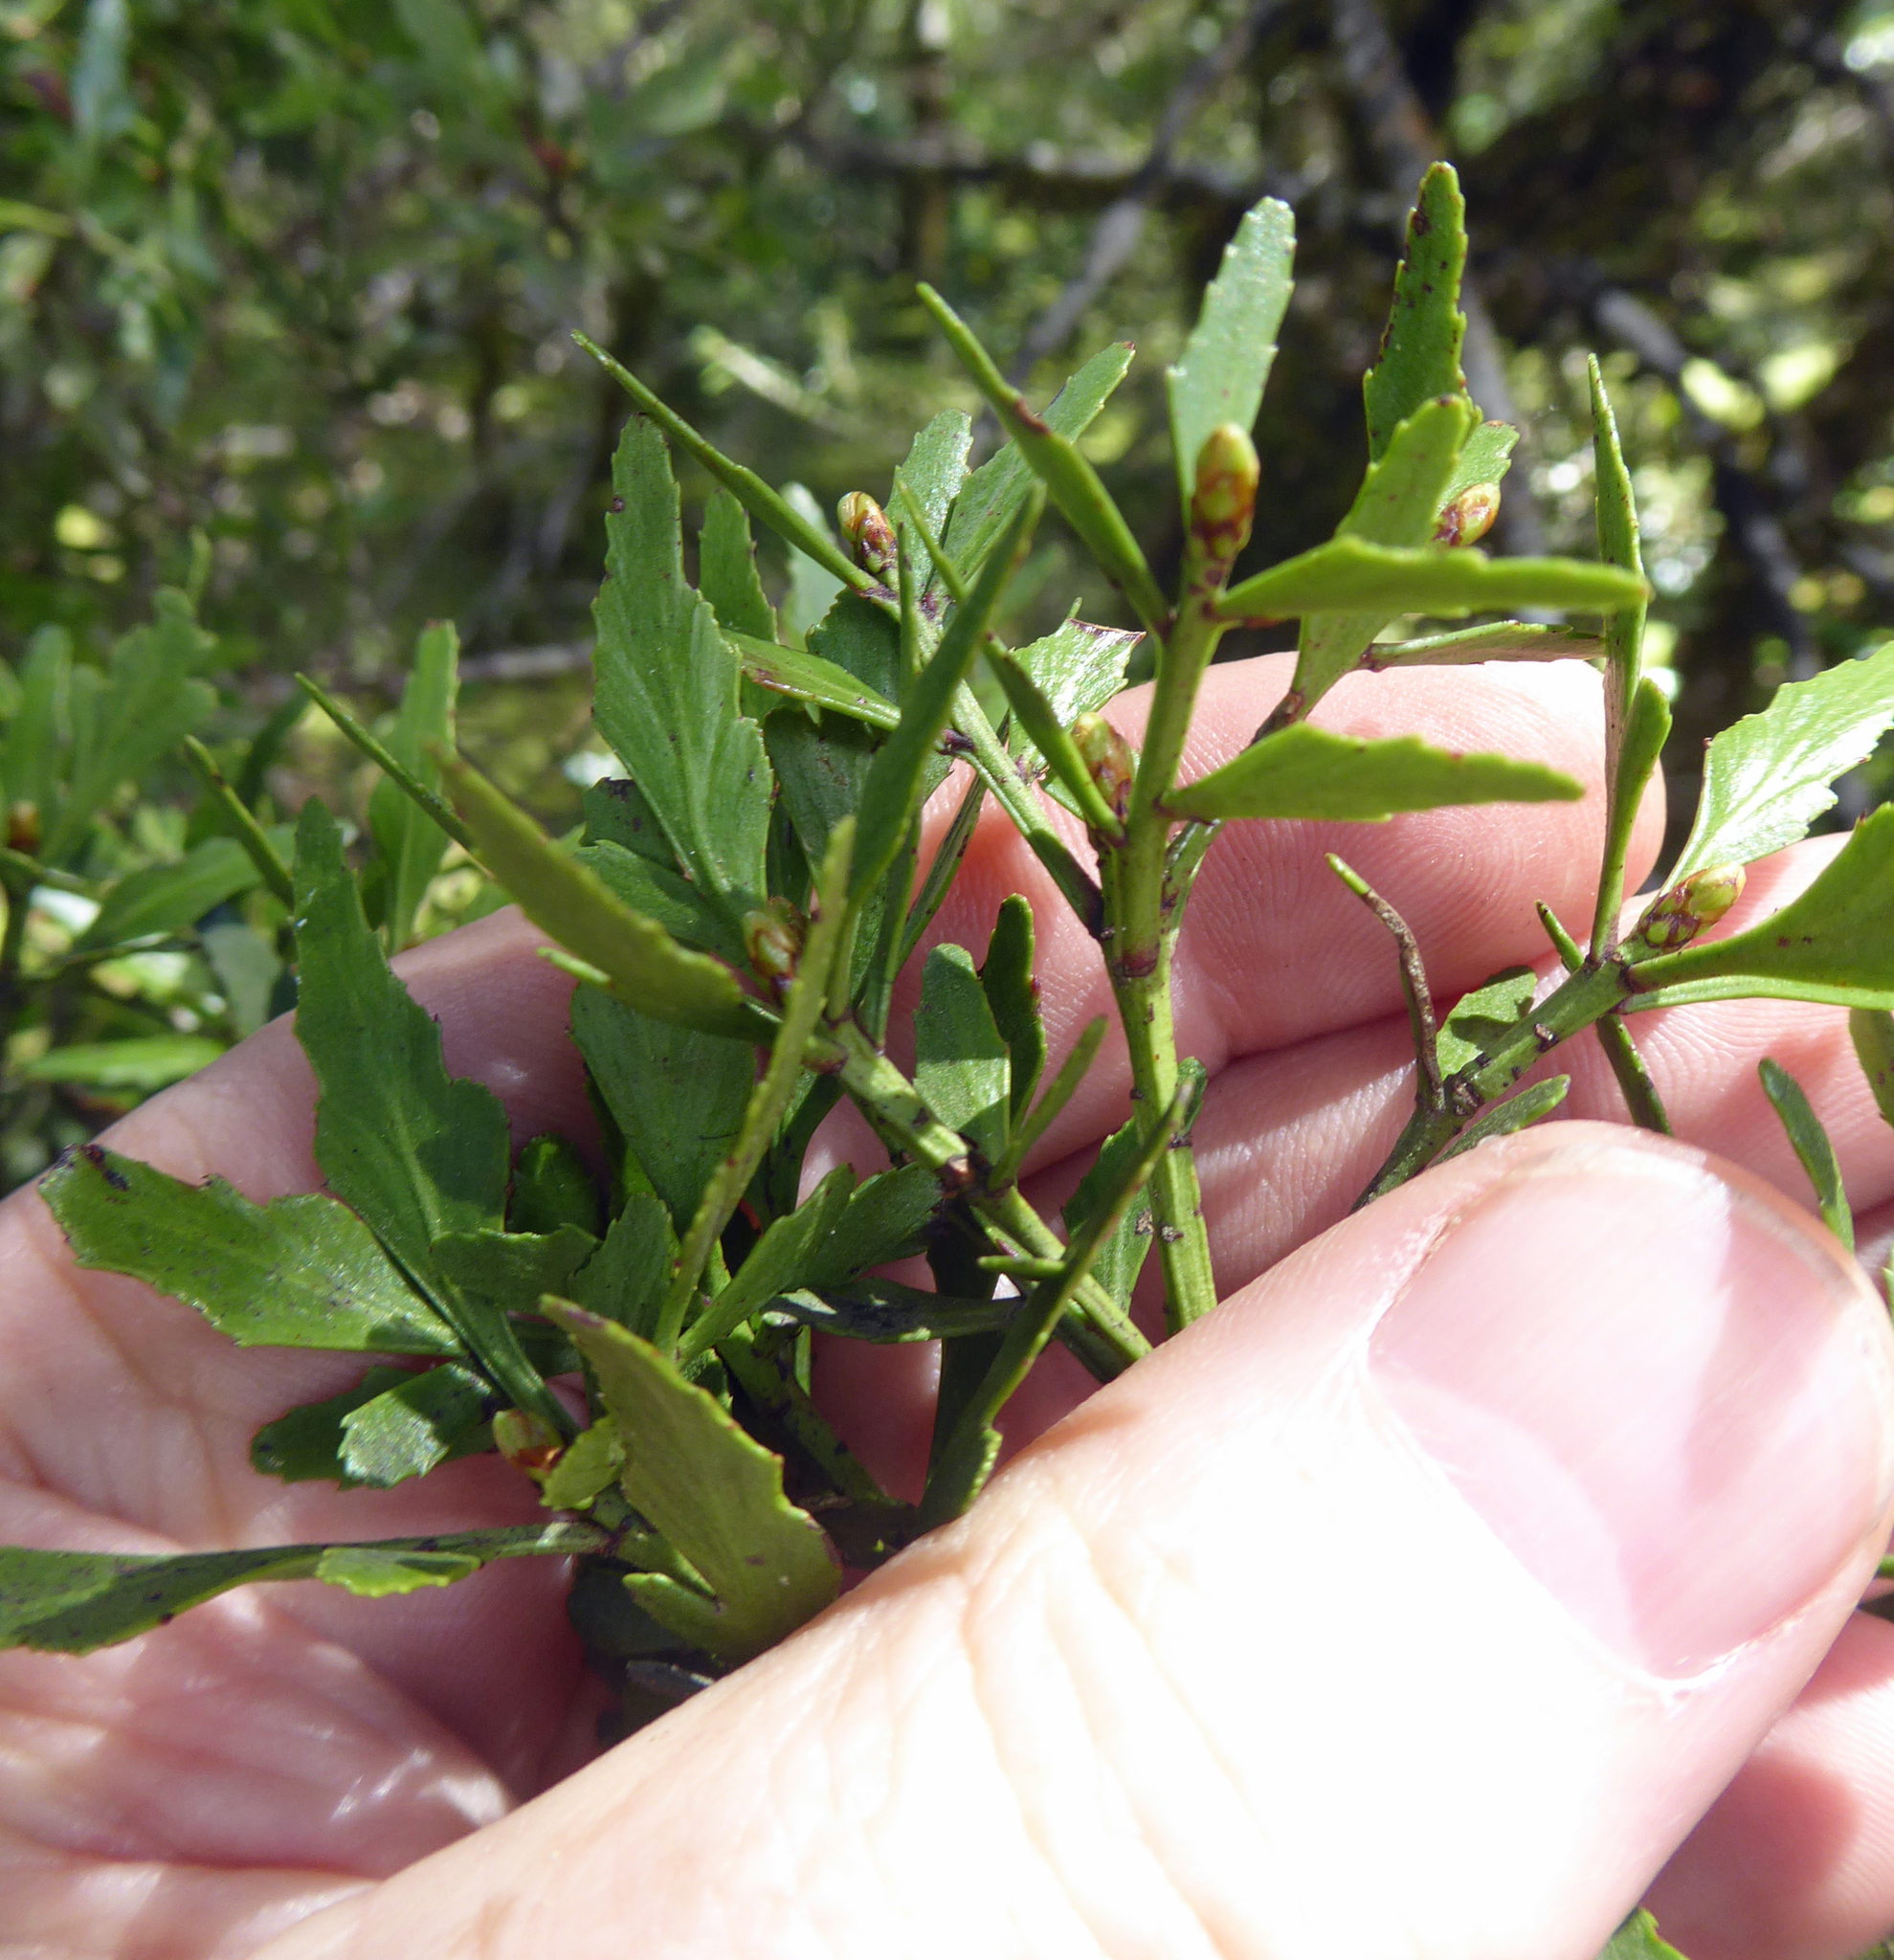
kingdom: Plantae
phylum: Tracheophyta
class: Pinopsida
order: Pinales
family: Phyllocladaceae
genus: Phyllocladus
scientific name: Phyllocladus trichomanoides
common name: Celery pine
